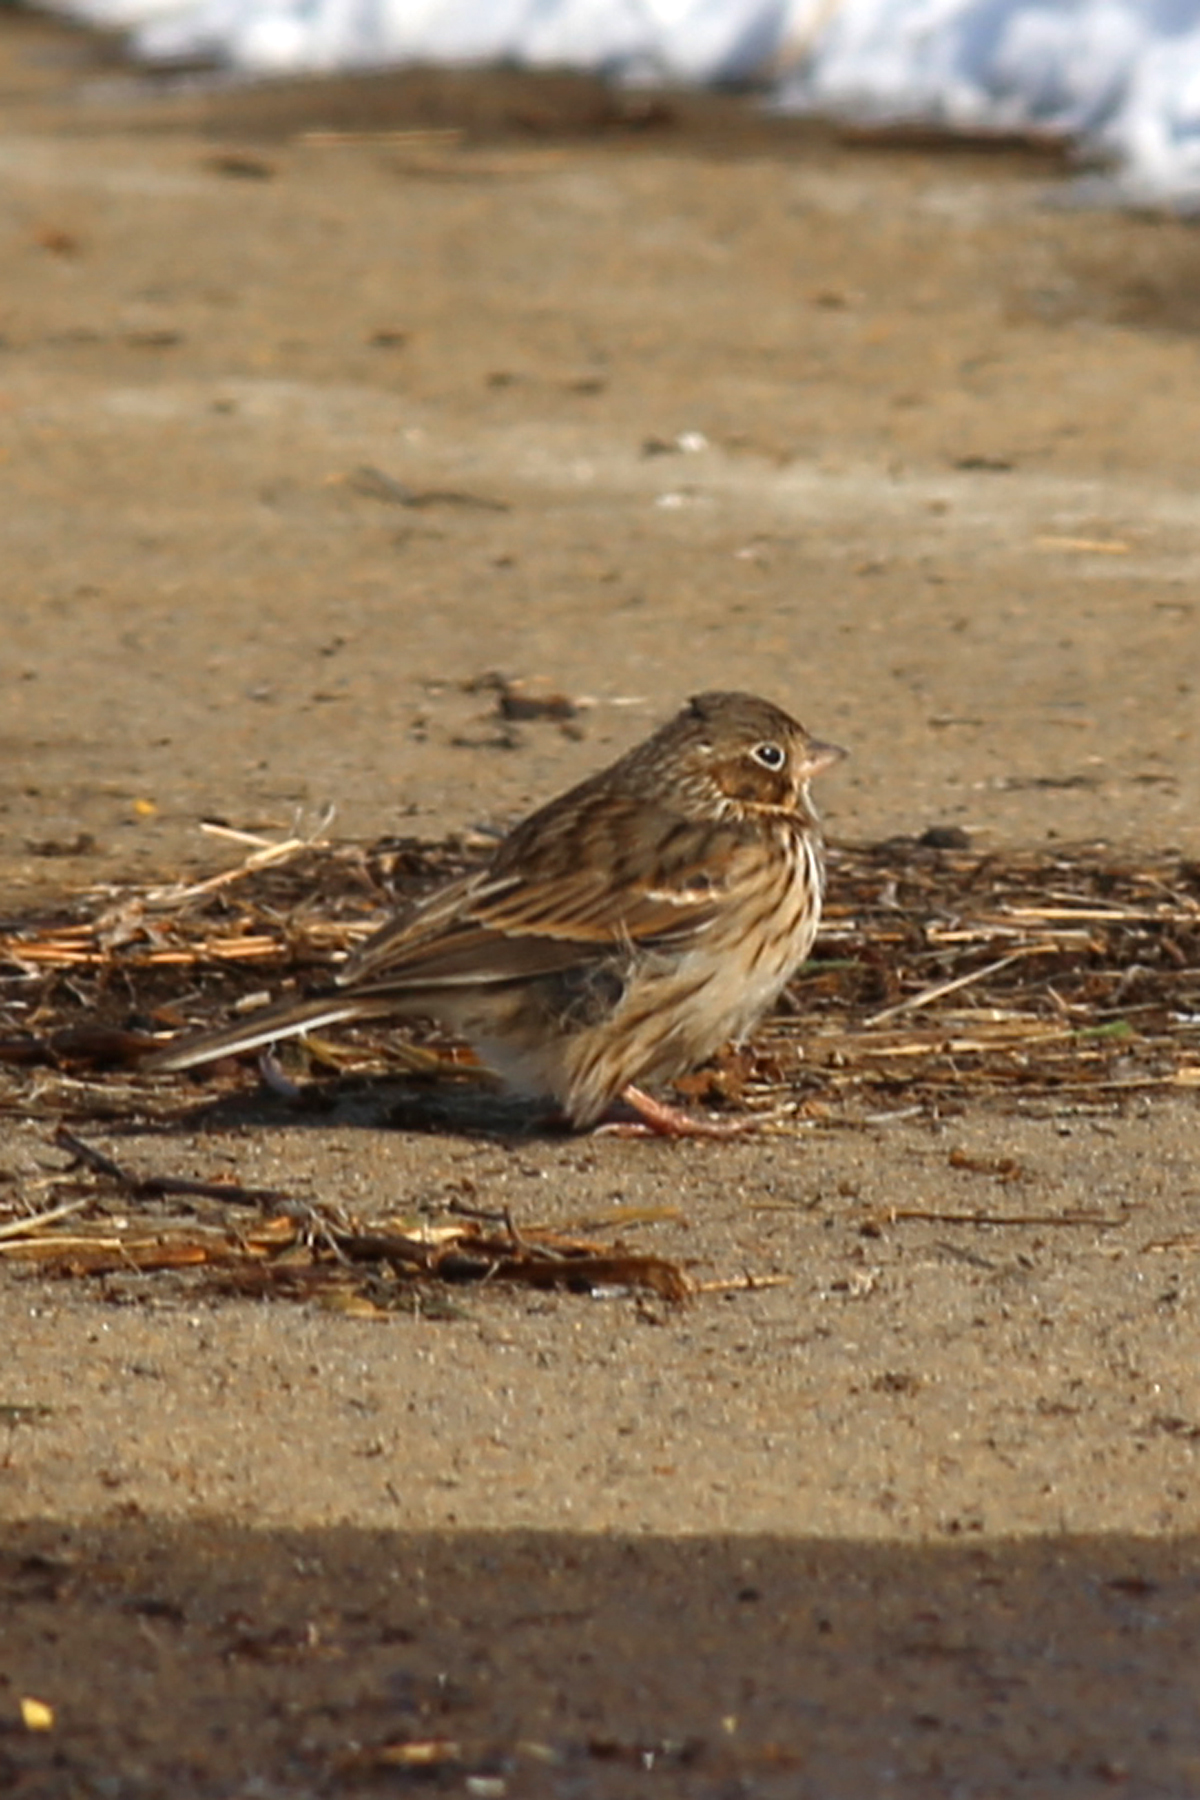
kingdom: Animalia
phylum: Chordata
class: Aves
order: Passeriformes
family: Passerellidae
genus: Pooecetes
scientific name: Pooecetes gramineus
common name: Vesper sparrow
